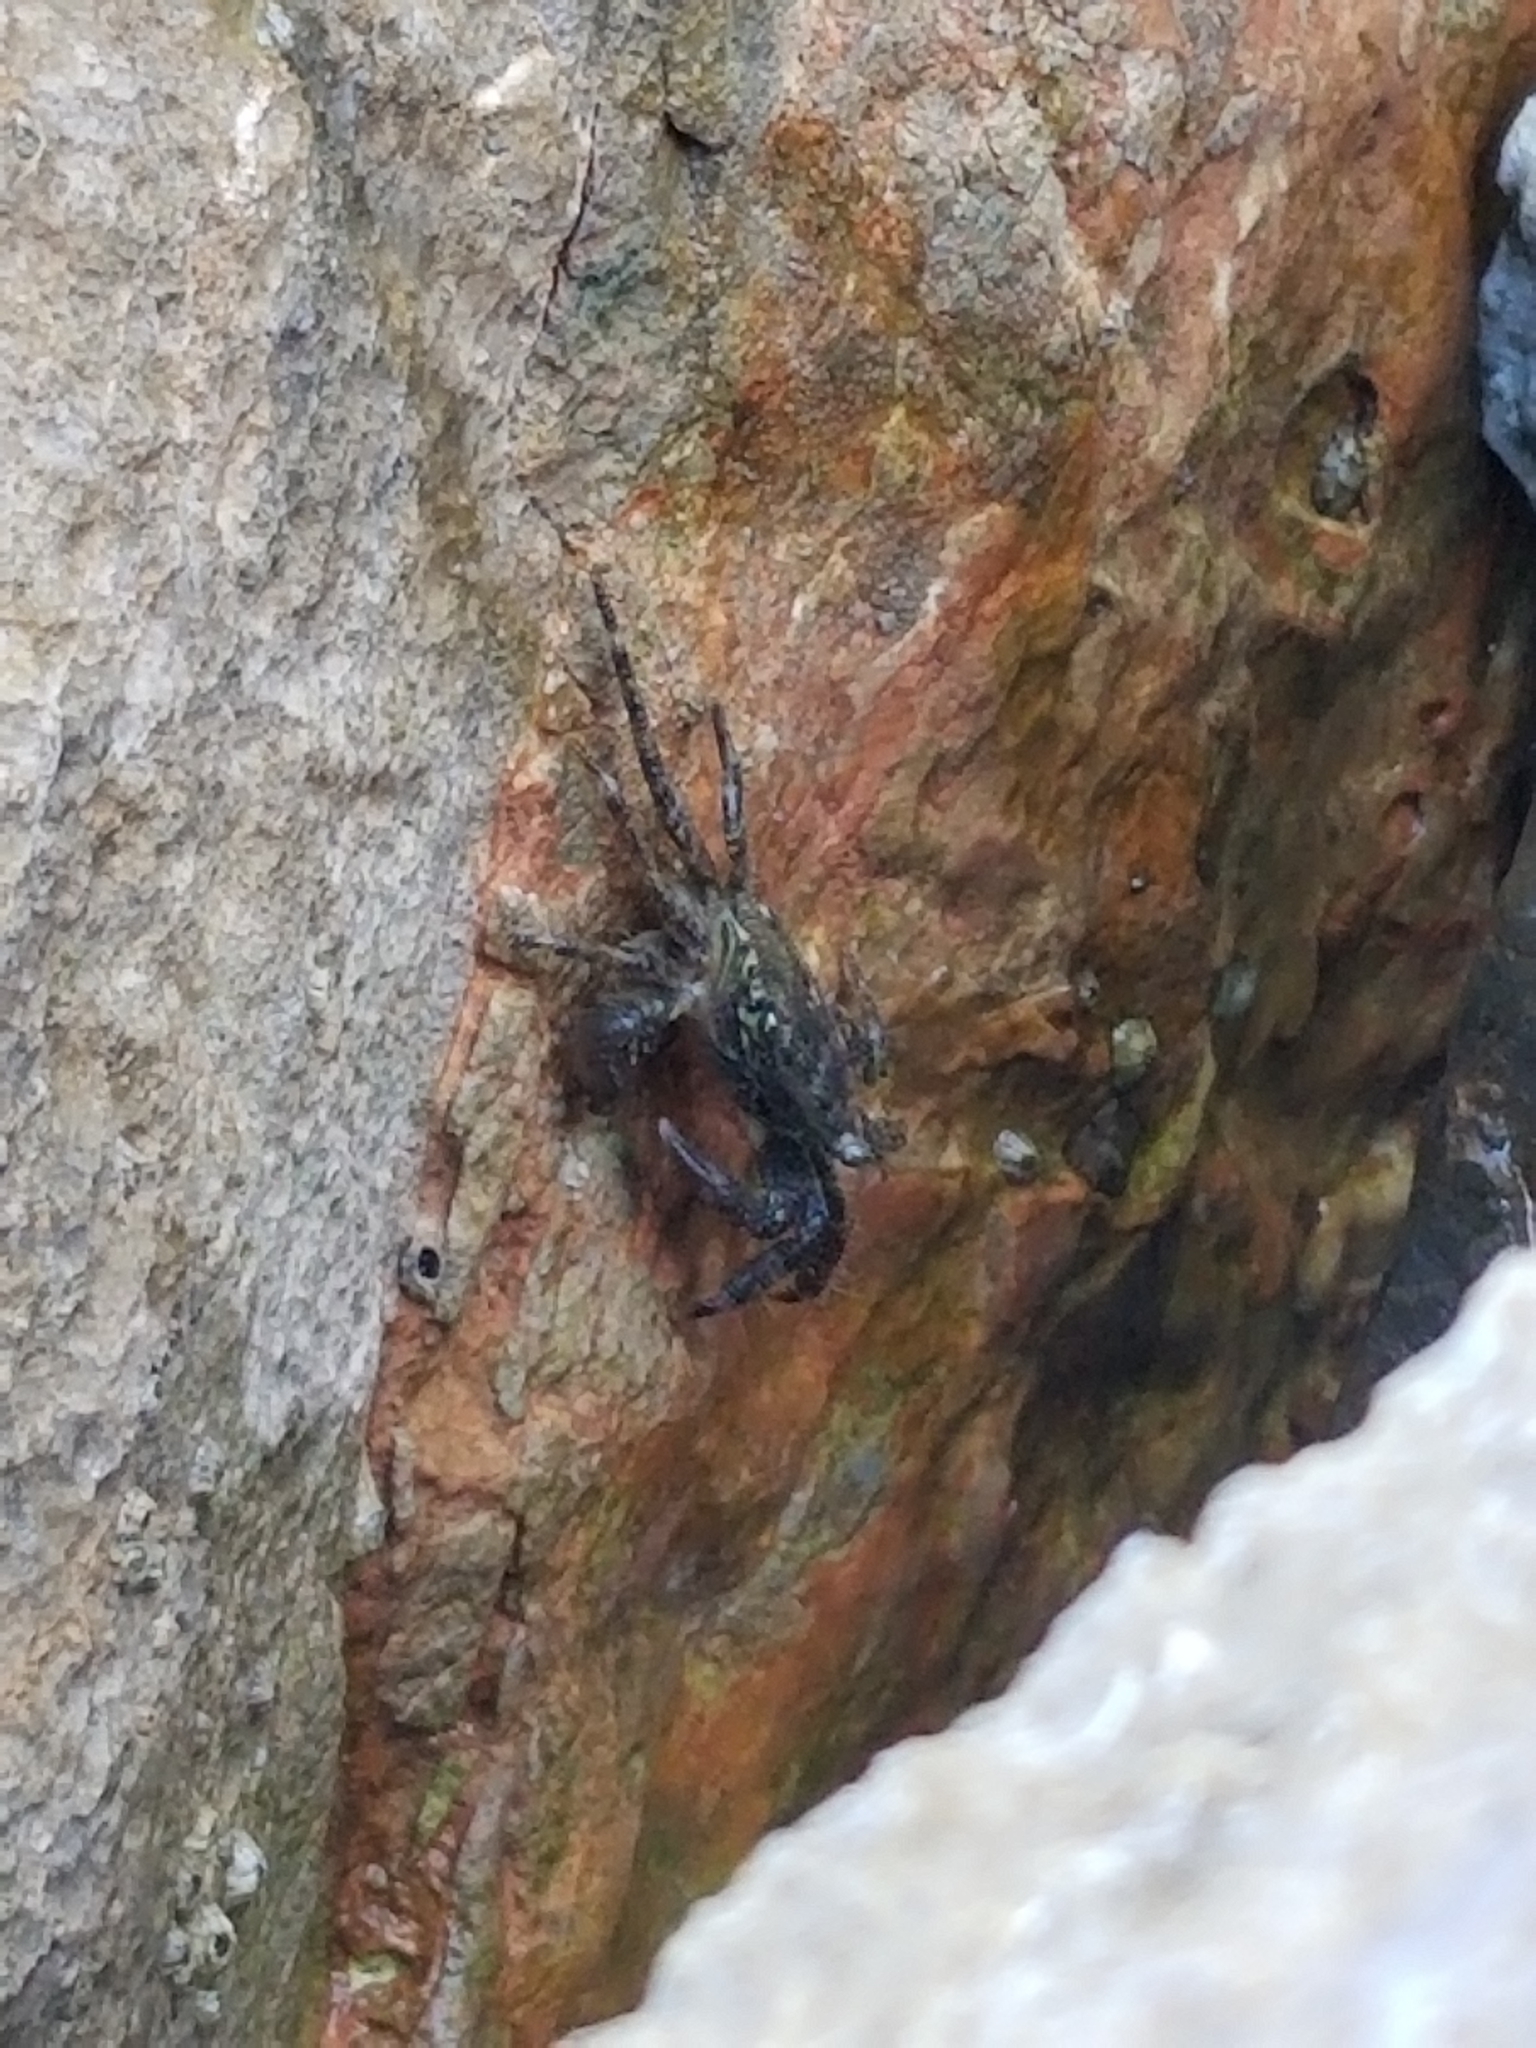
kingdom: Animalia
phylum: Arthropoda
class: Malacostraca
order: Decapoda
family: Grapsidae
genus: Pachygrapsus
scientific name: Pachygrapsus marmoratus
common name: Marbled rock crab
